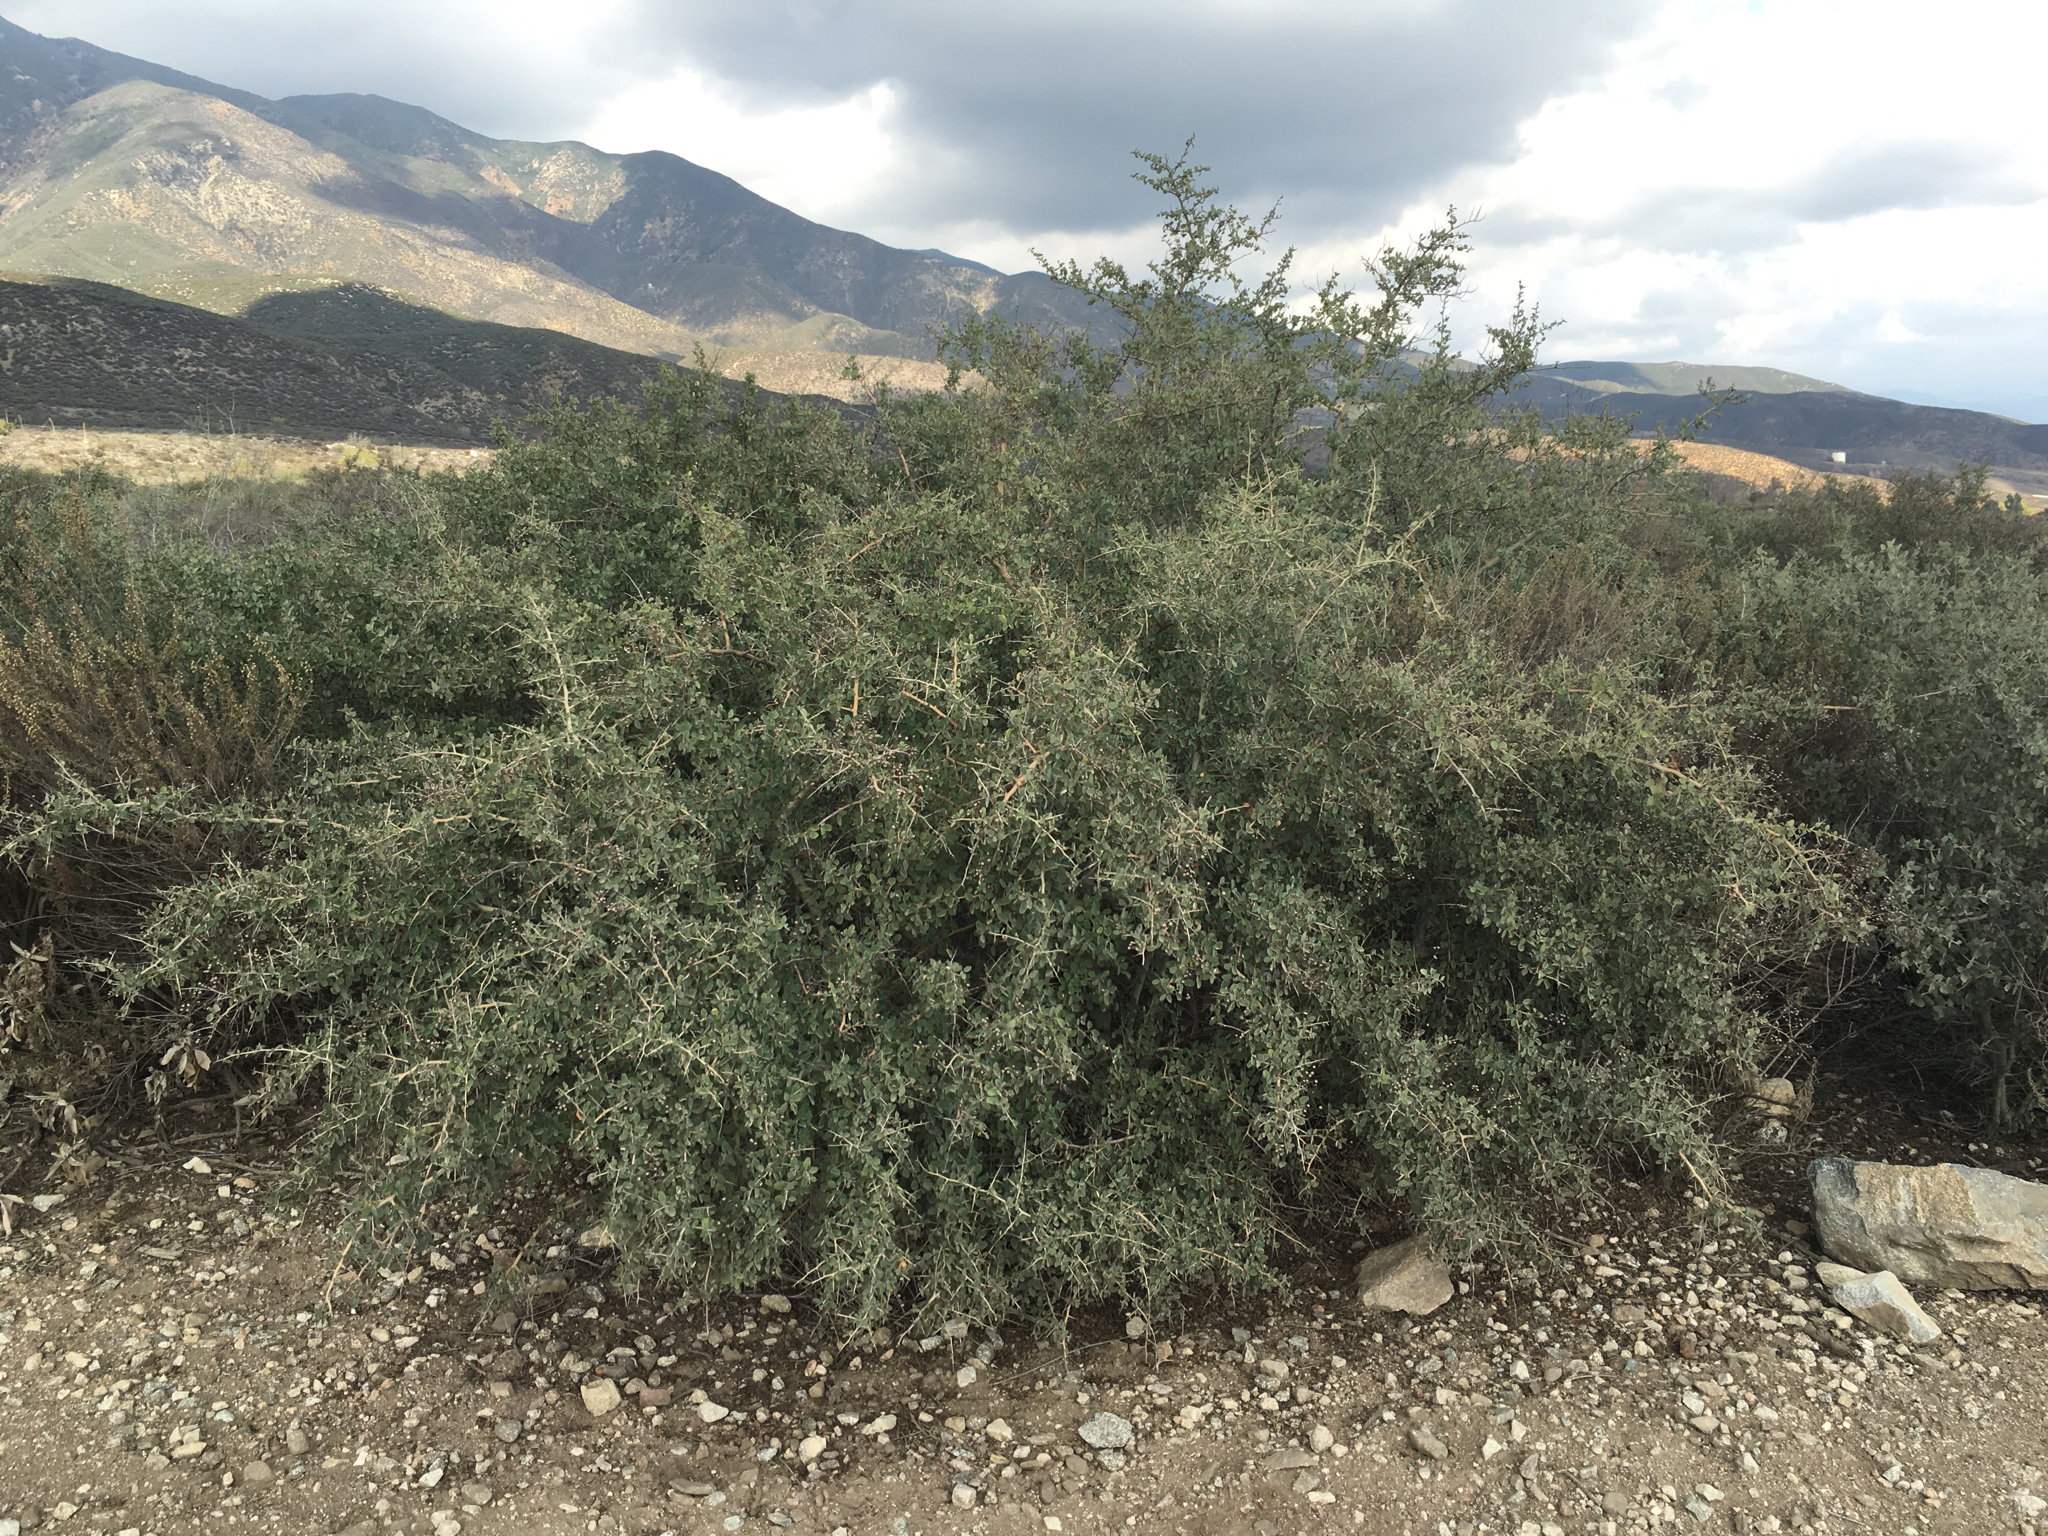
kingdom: Plantae
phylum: Tracheophyta
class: Magnoliopsida
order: Rosales
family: Rhamnaceae
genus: Ceanothus
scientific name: Ceanothus leucodermis
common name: Chaparral whitethorn
